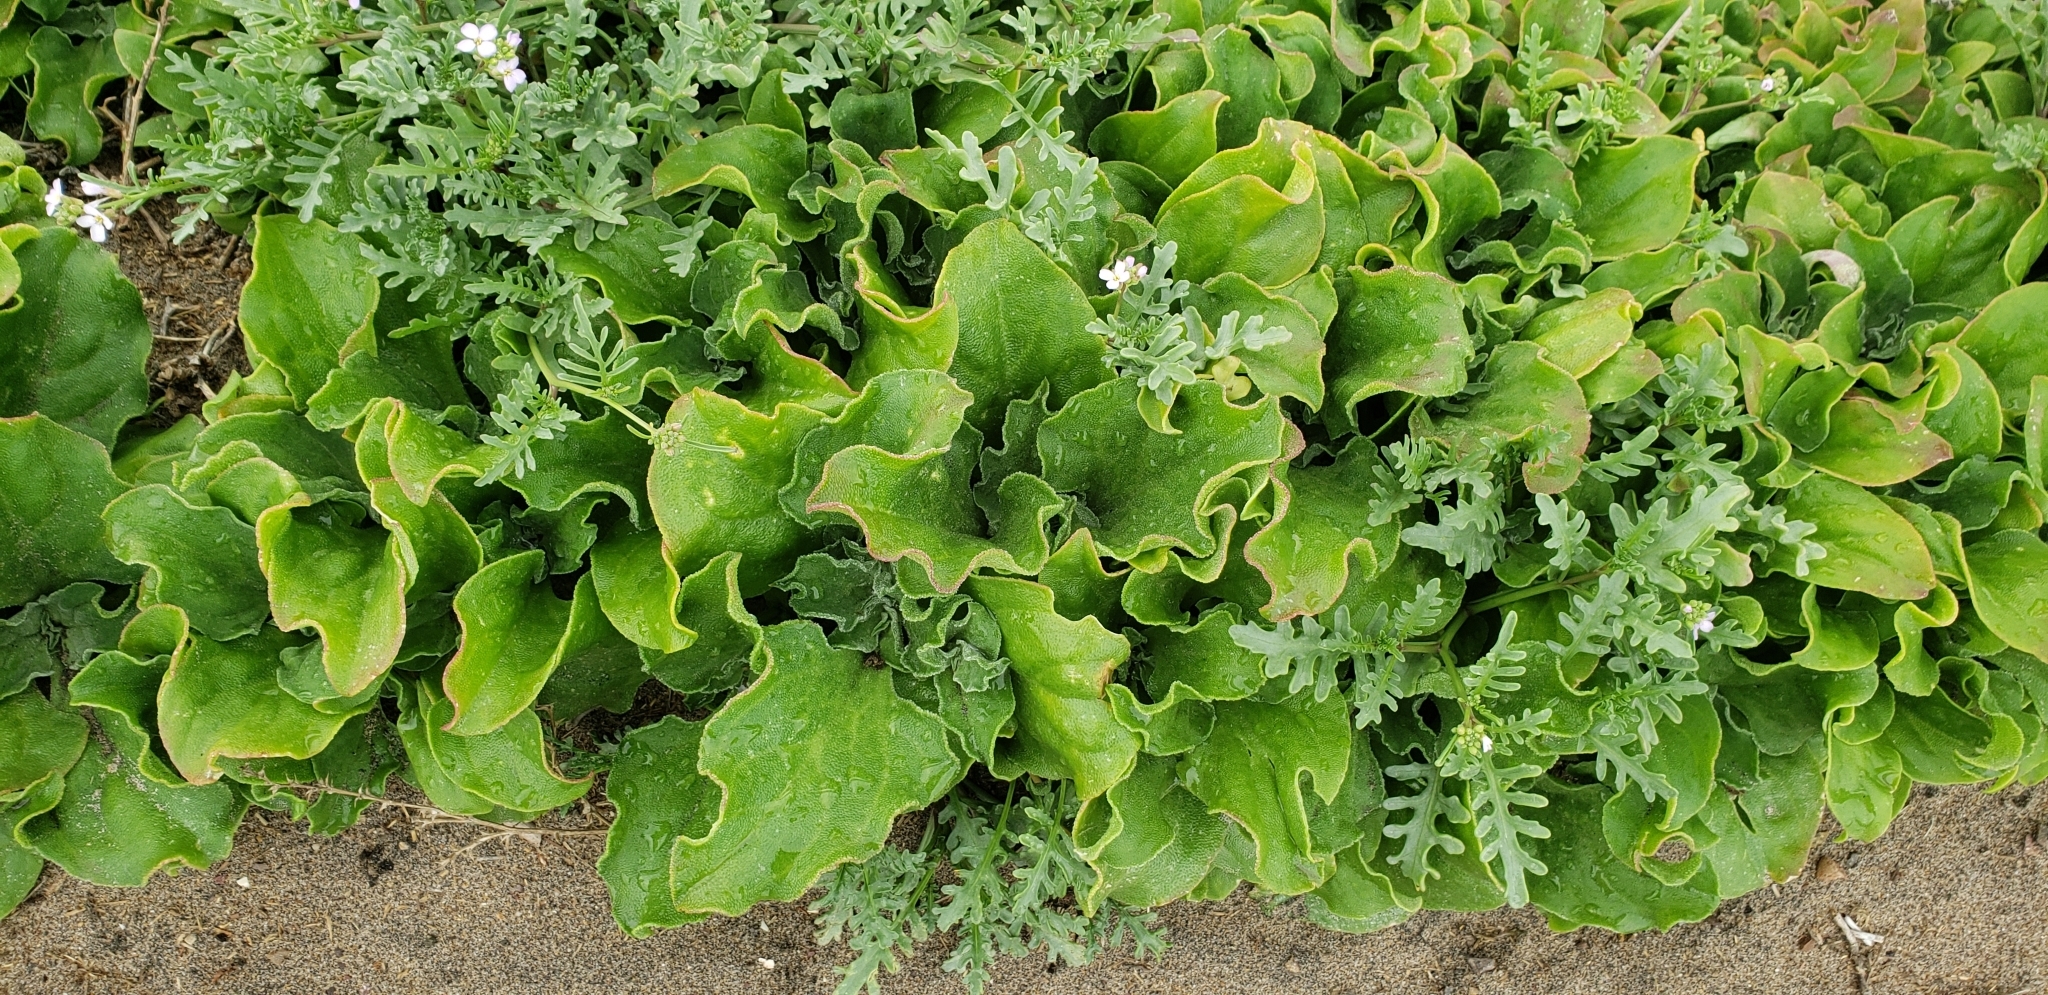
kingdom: Plantae
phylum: Tracheophyta
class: Magnoliopsida
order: Caryophyllales
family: Aizoaceae
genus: Mesembryanthemum
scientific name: Mesembryanthemum crystallinum
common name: Common iceplant
